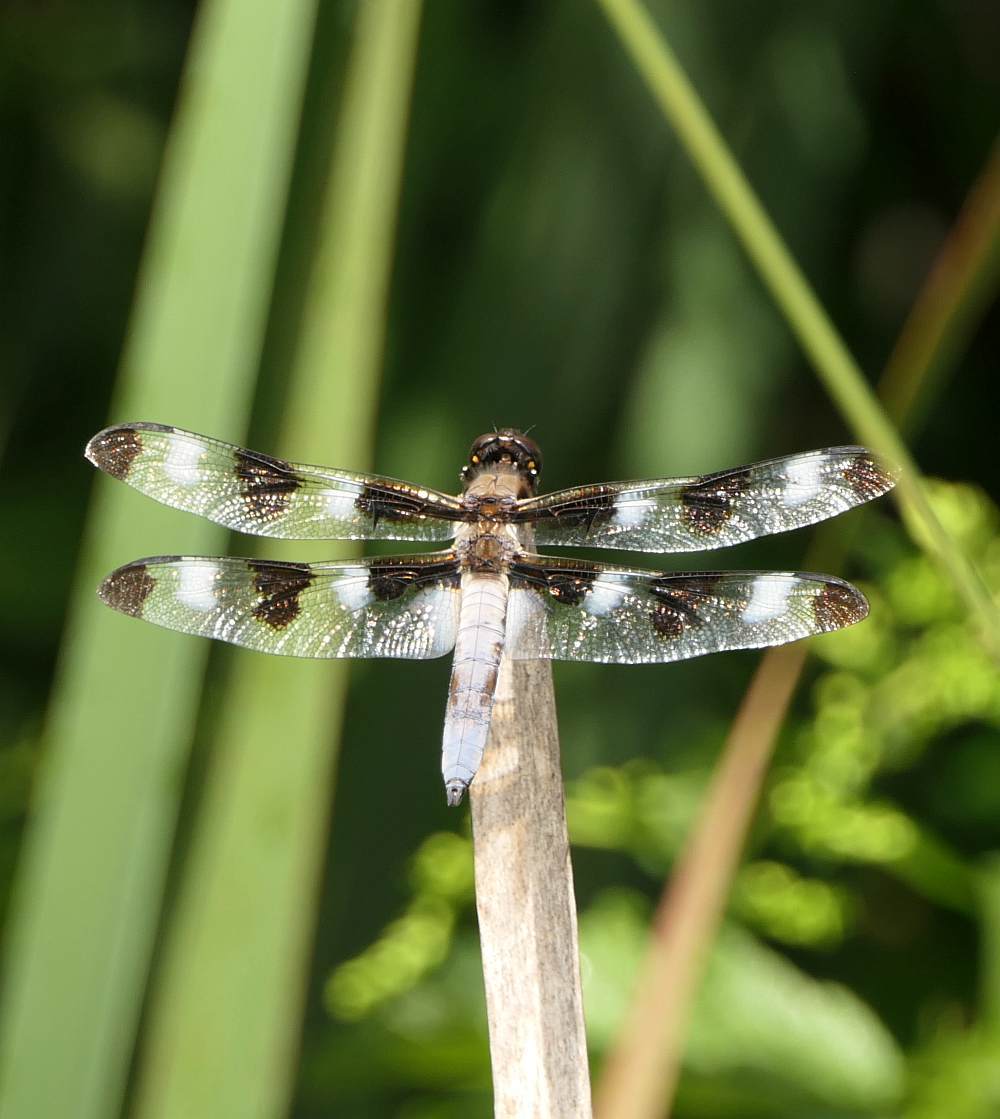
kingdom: Animalia
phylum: Arthropoda
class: Insecta
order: Odonata
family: Libellulidae
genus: Libellula
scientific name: Libellula pulchella
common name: Twelve-spotted skimmer
